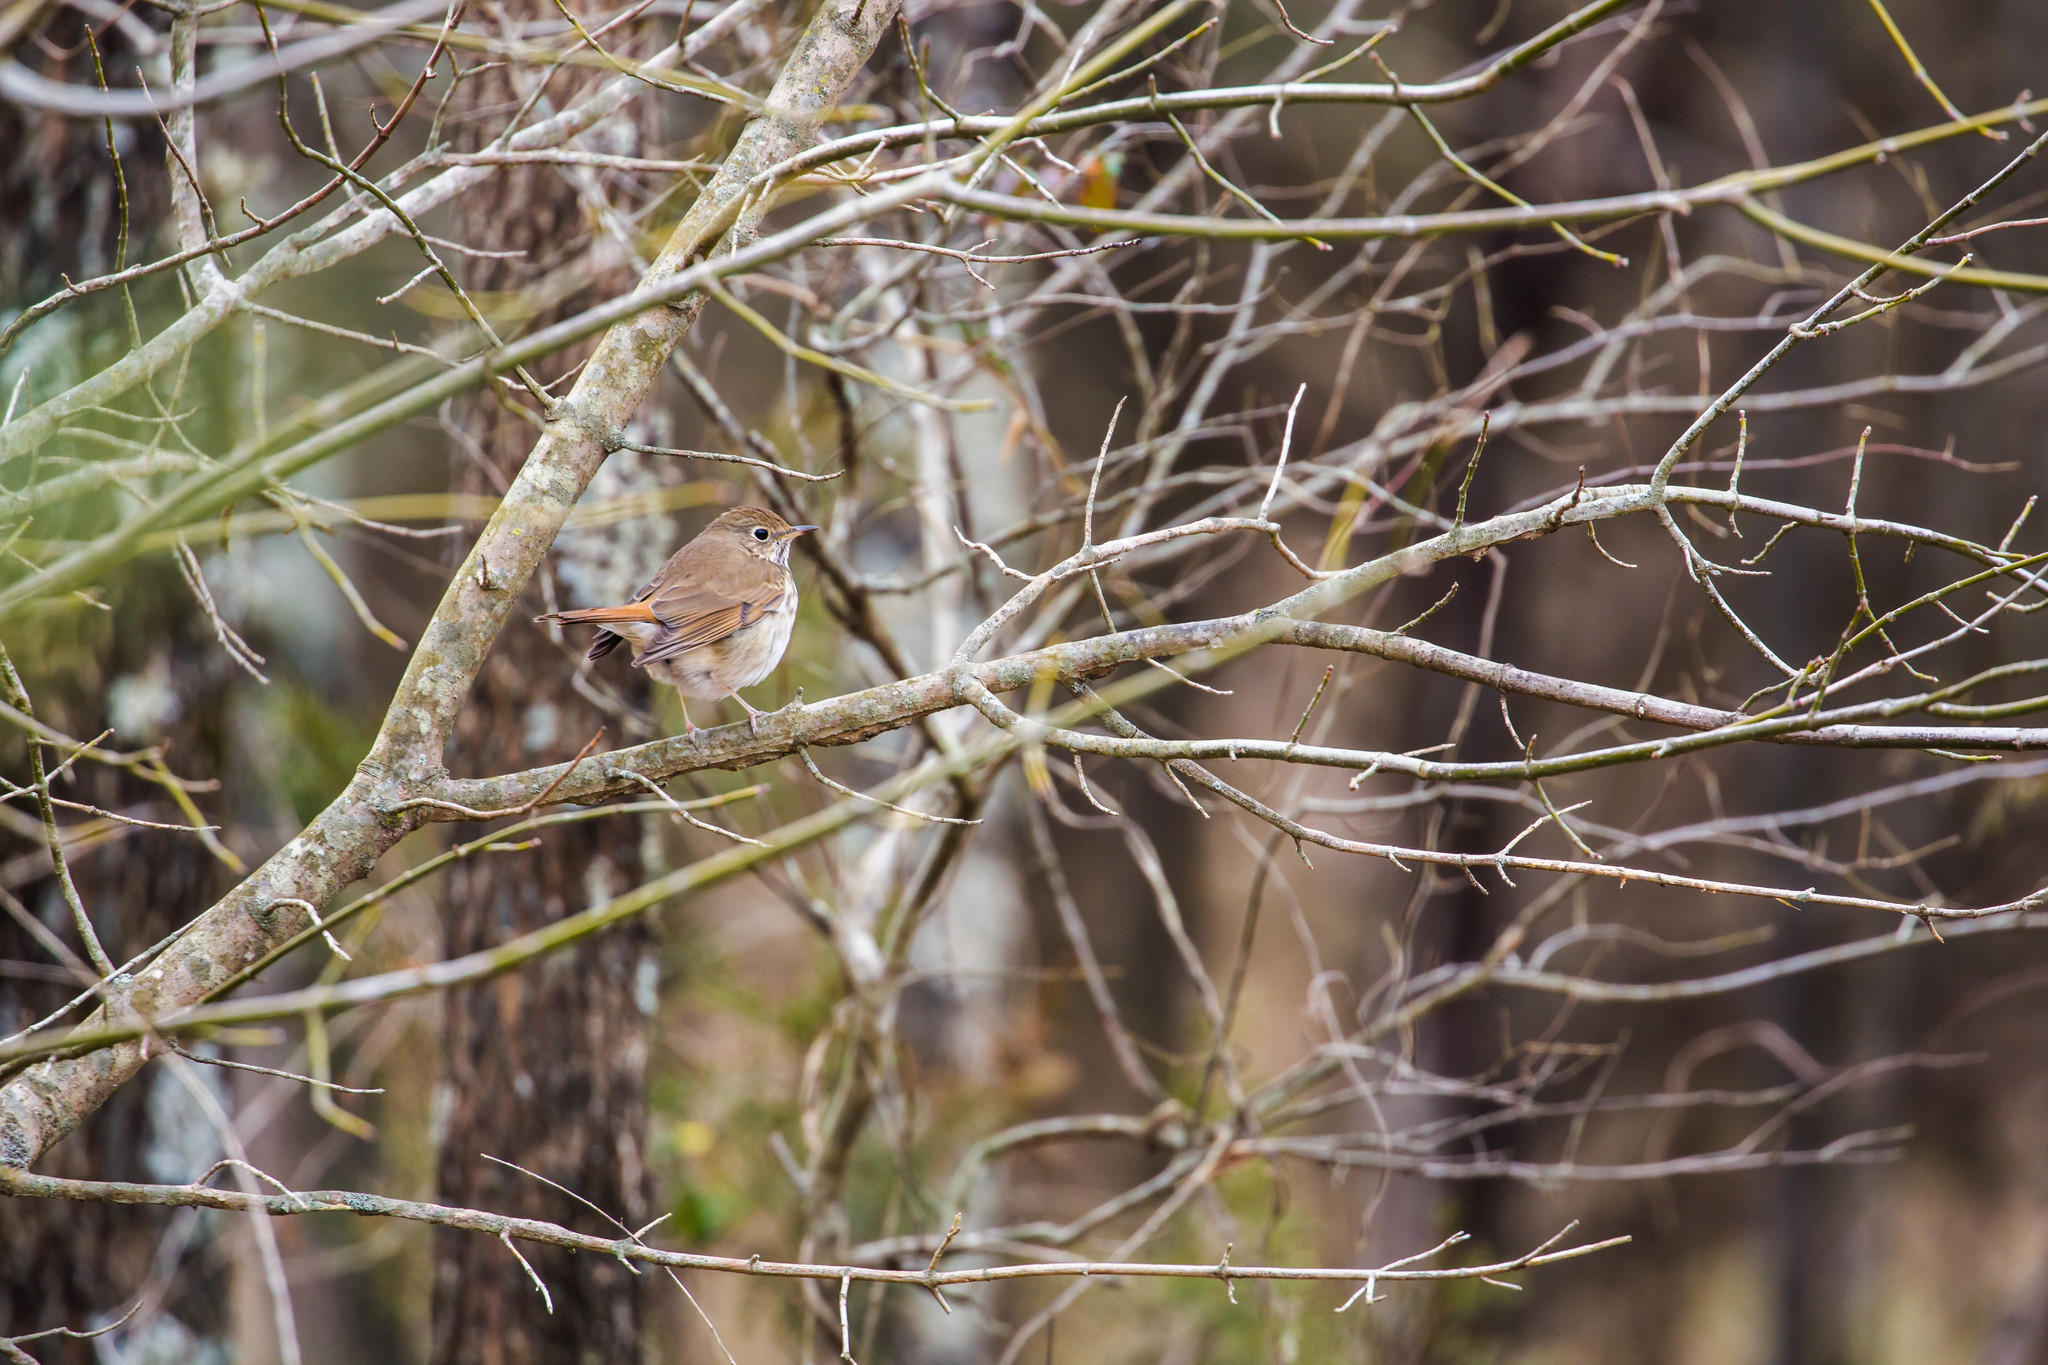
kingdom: Animalia
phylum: Chordata
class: Aves
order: Passeriformes
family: Turdidae
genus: Catharus
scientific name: Catharus guttatus
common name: Hermit thrush
